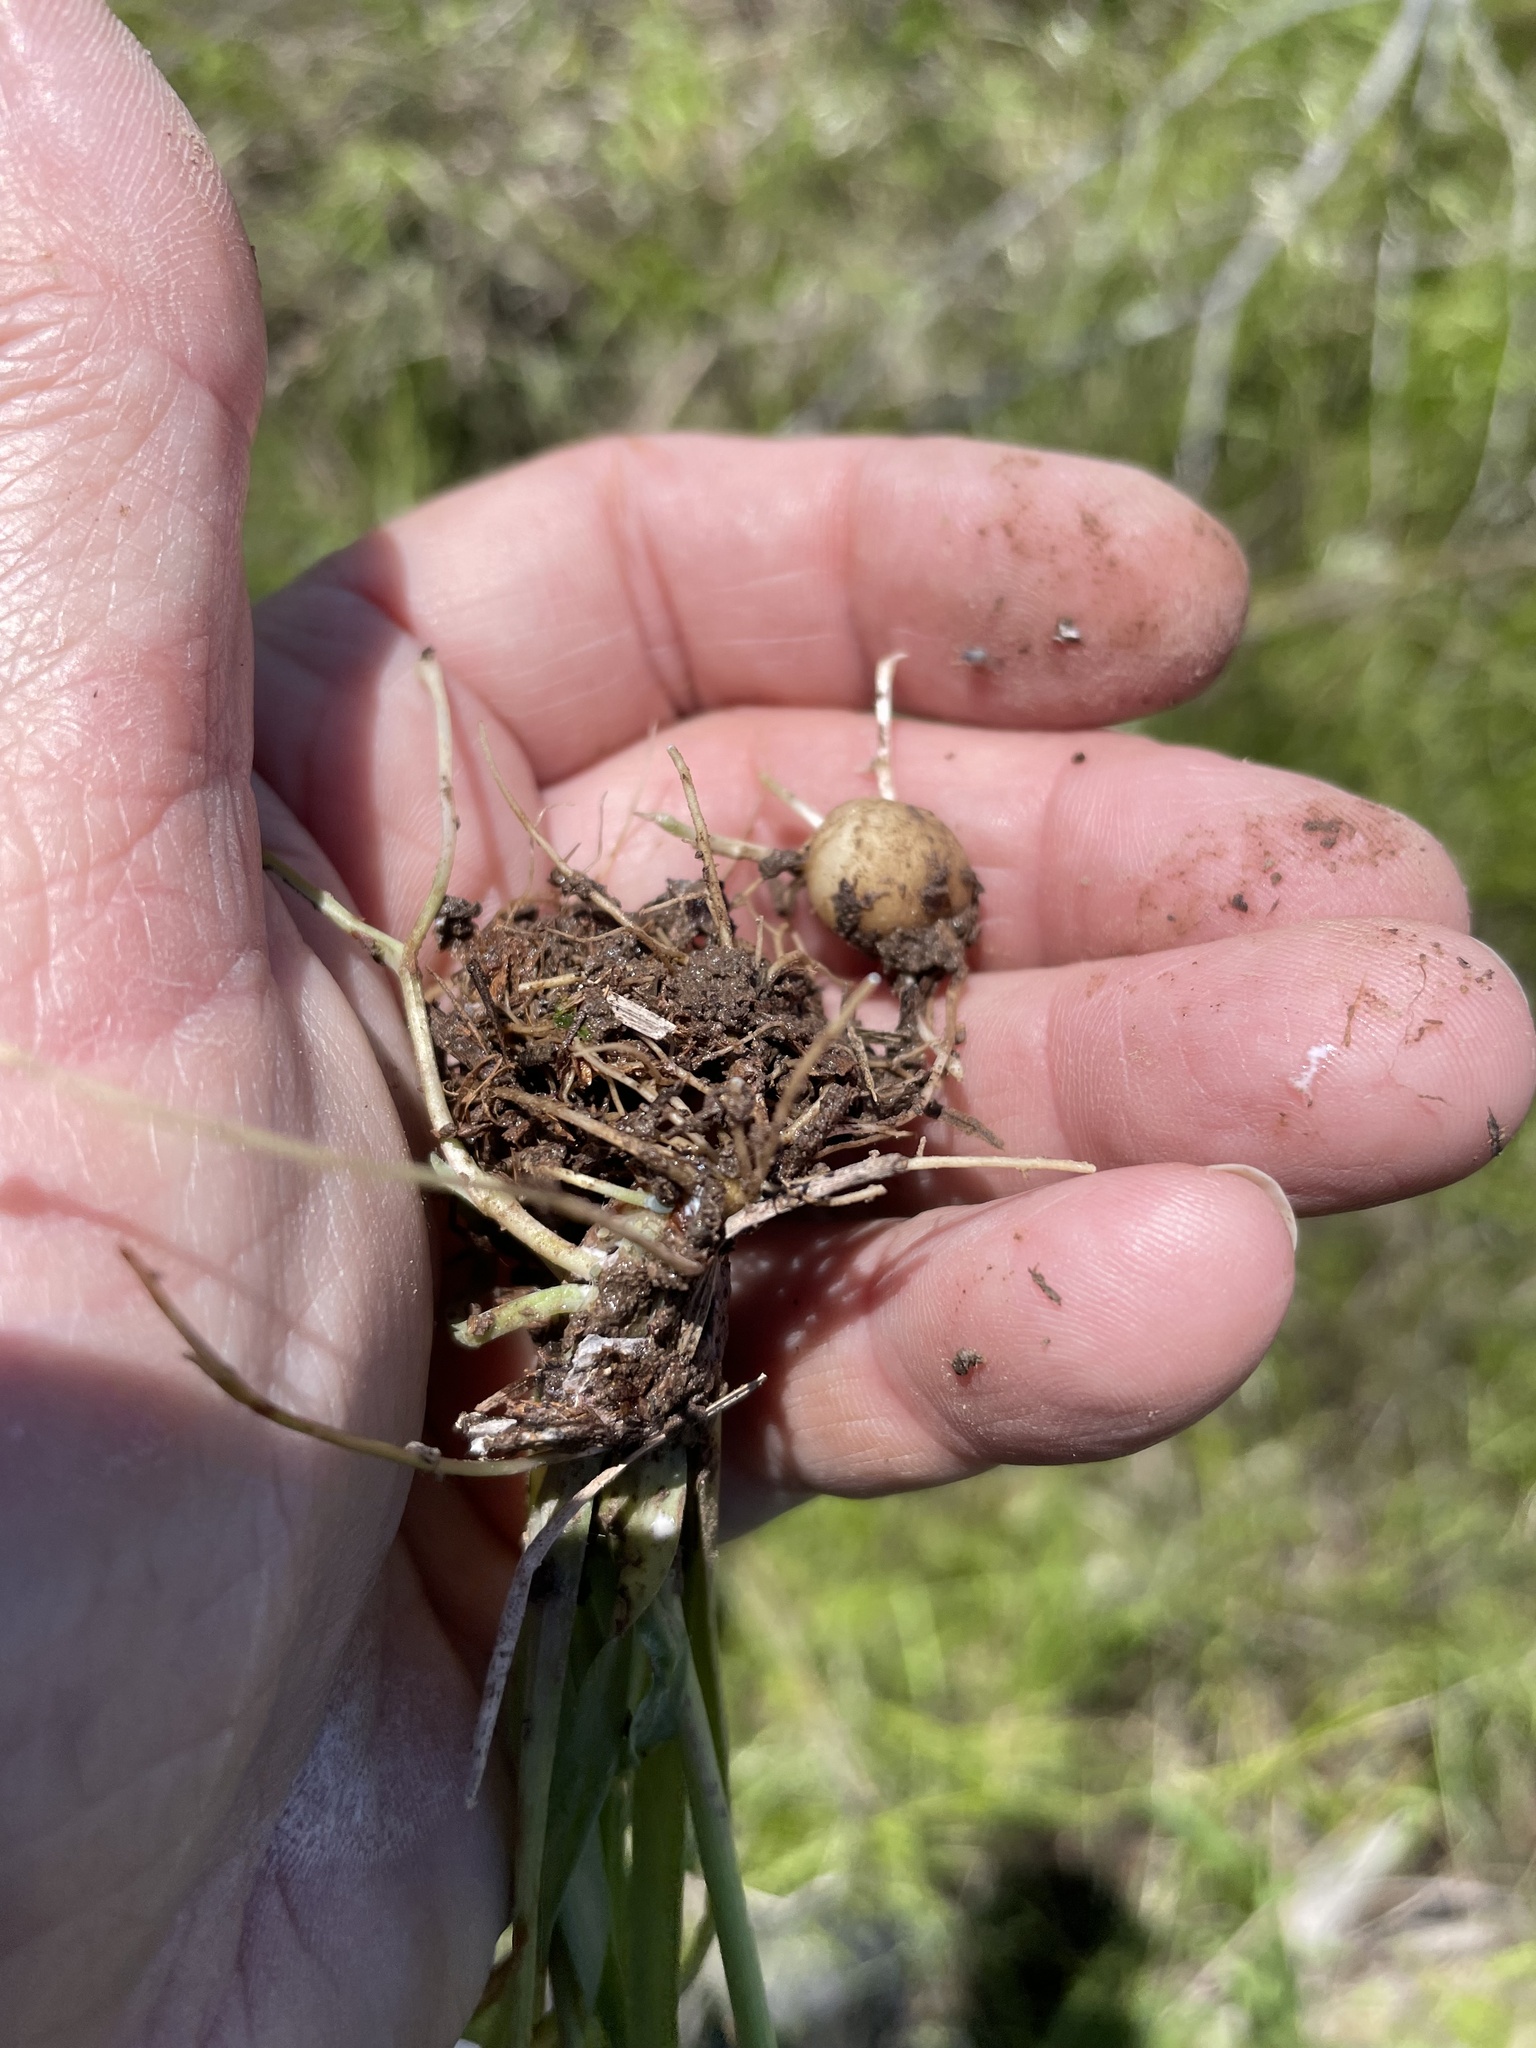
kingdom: Plantae
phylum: Tracheophyta
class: Magnoliopsida
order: Asterales
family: Asteraceae
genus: Krigia
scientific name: Krigia dandelion
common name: Colonial dwarf-dandelion
